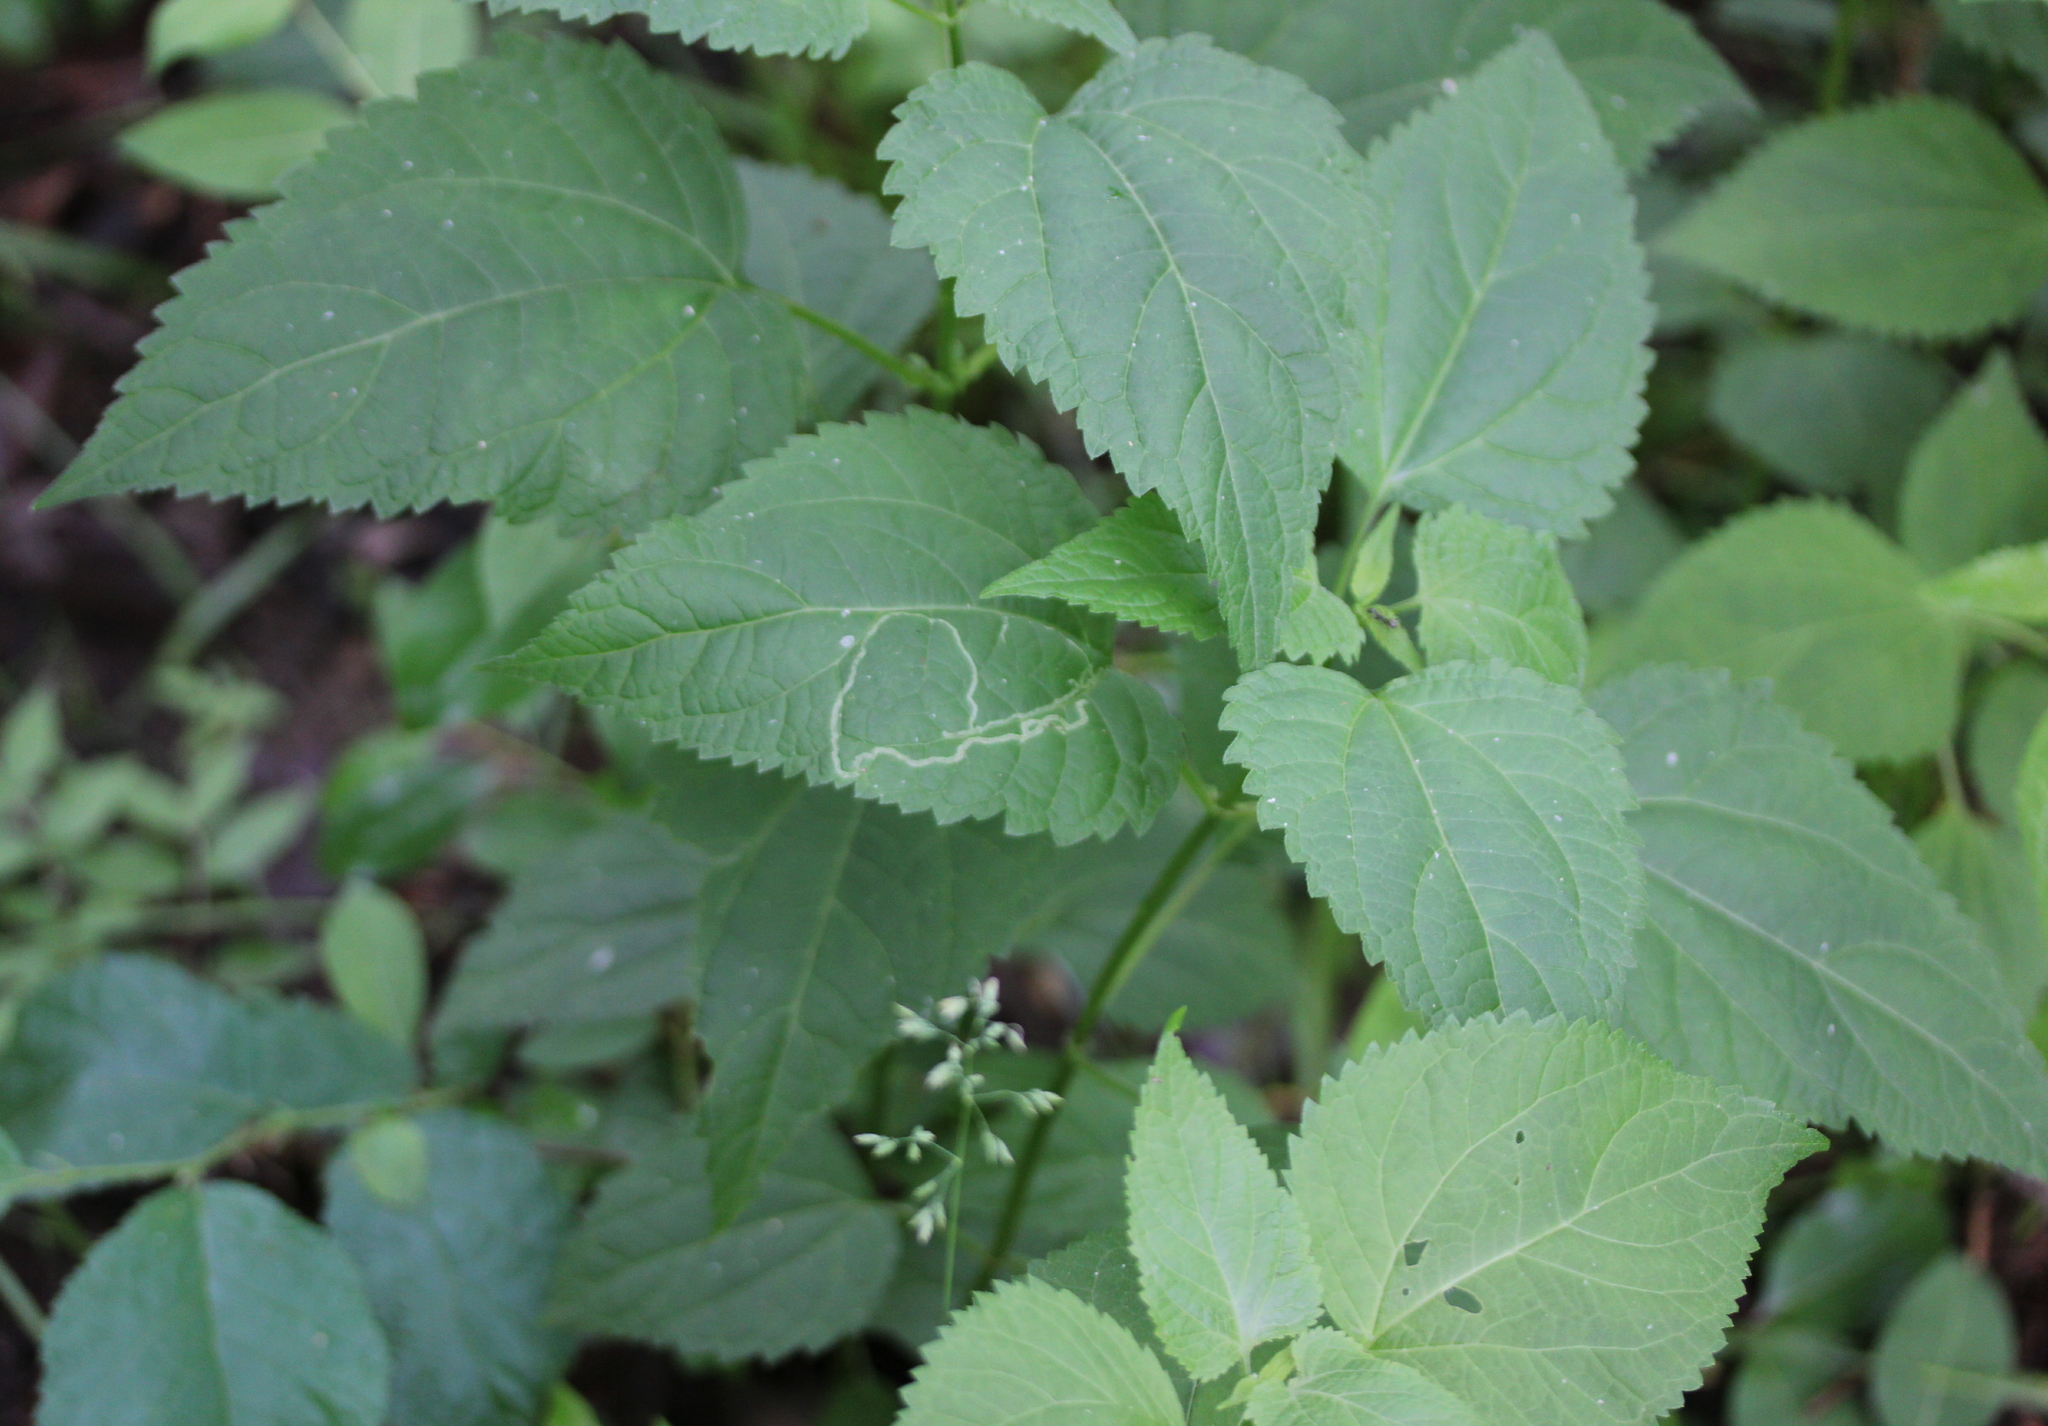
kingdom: Plantae
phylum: Tracheophyta
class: Magnoliopsida
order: Asterales
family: Asteraceae
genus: Ageratina
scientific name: Ageratina altissima
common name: White snakeroot
